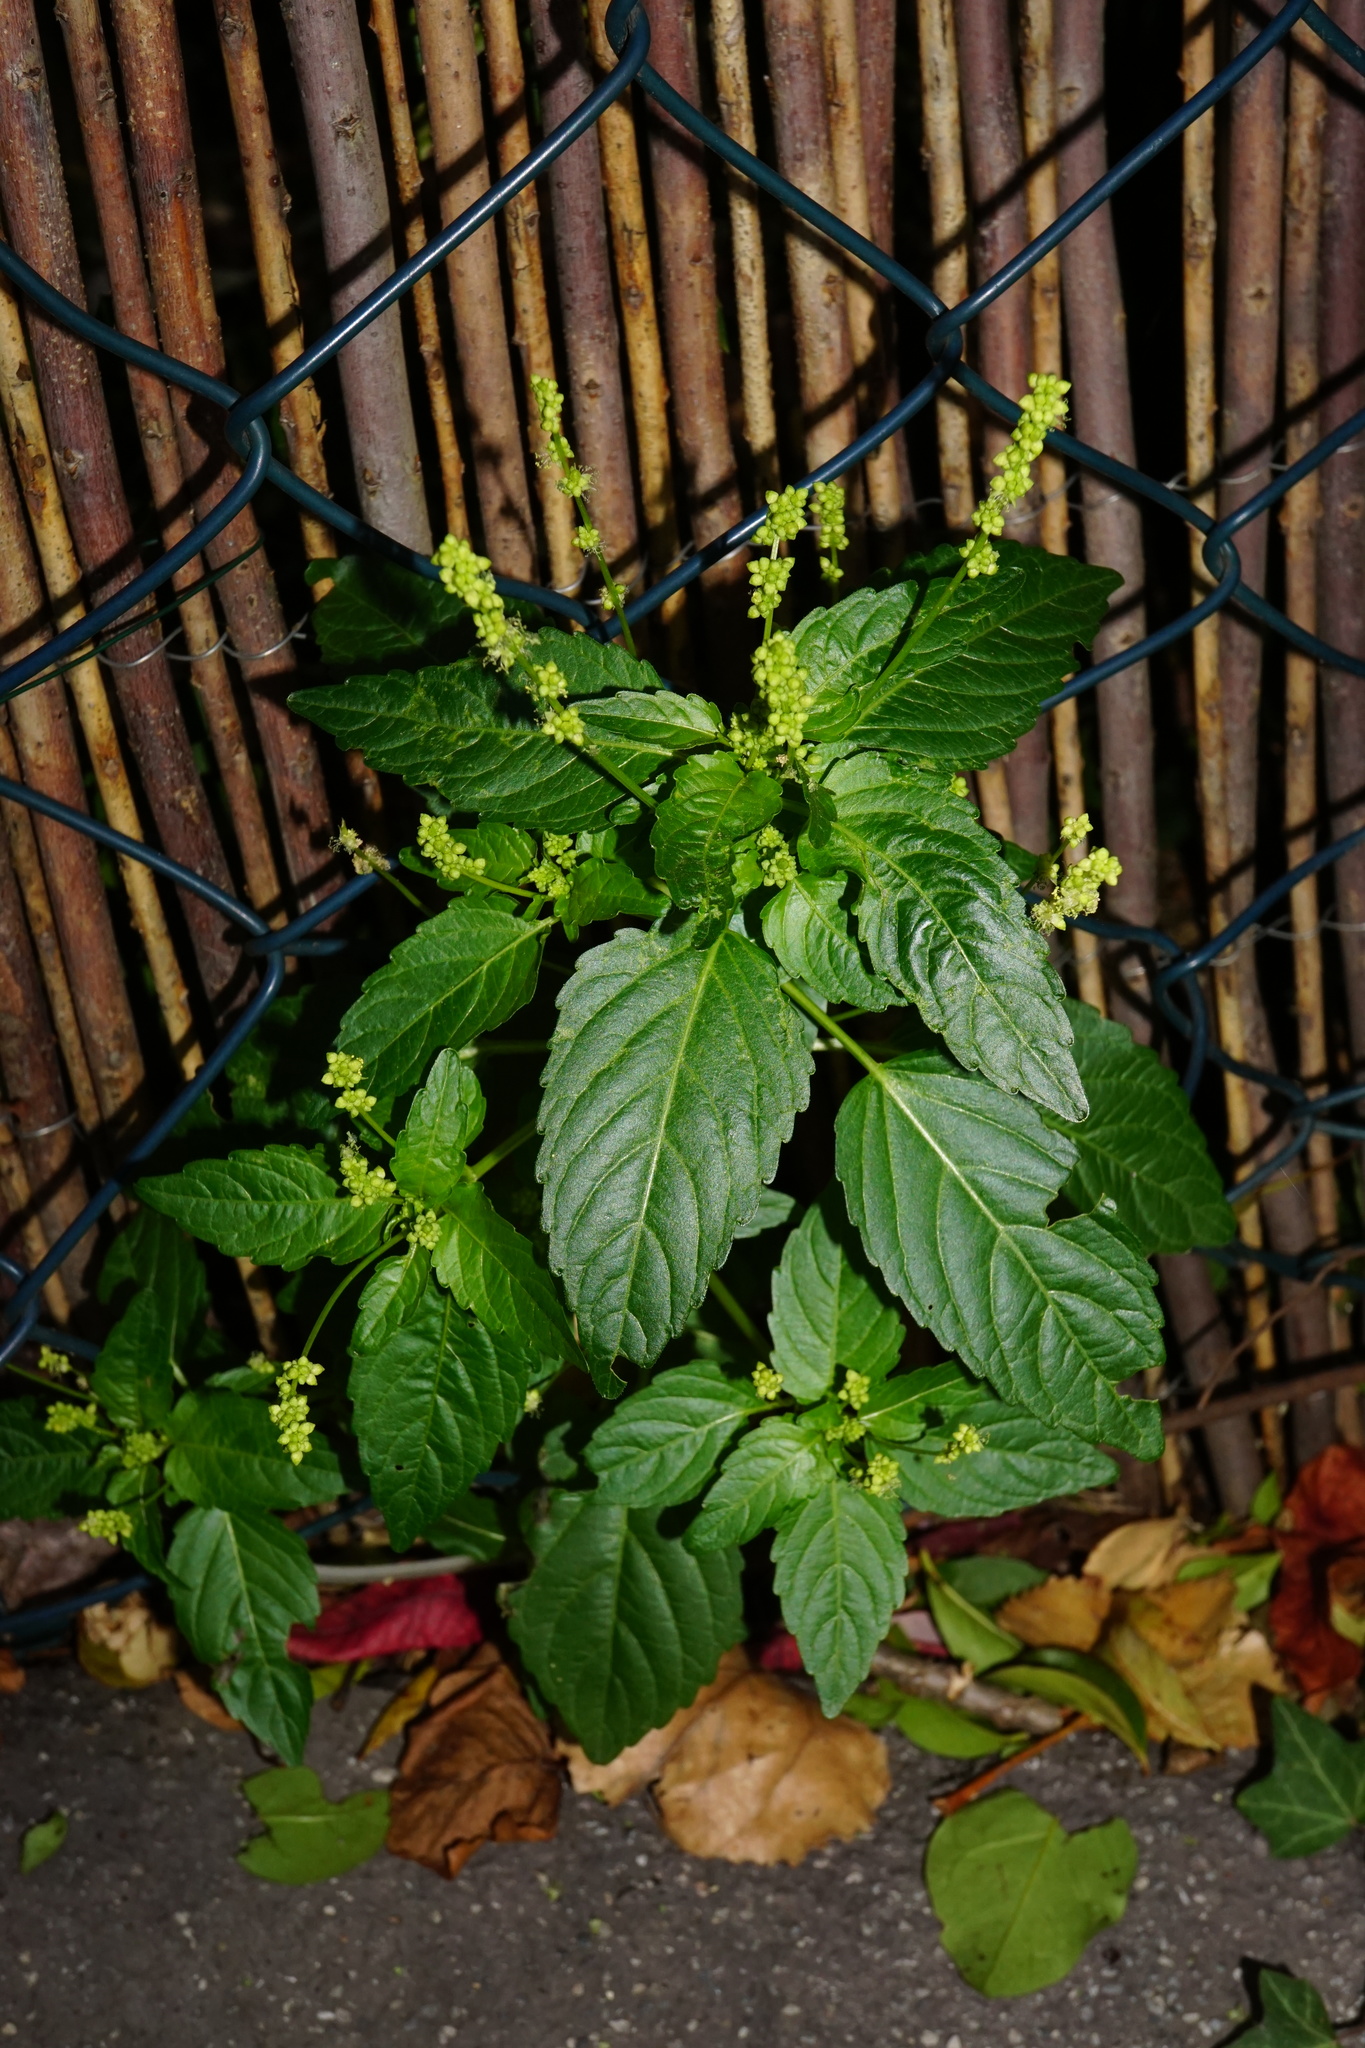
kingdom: Plantae
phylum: Tracheophyta
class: Magnoliopsida
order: Malpighiales
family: Euphorbiaceae
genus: Mercurialis
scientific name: Mercurialis annua
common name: Annual mercury
